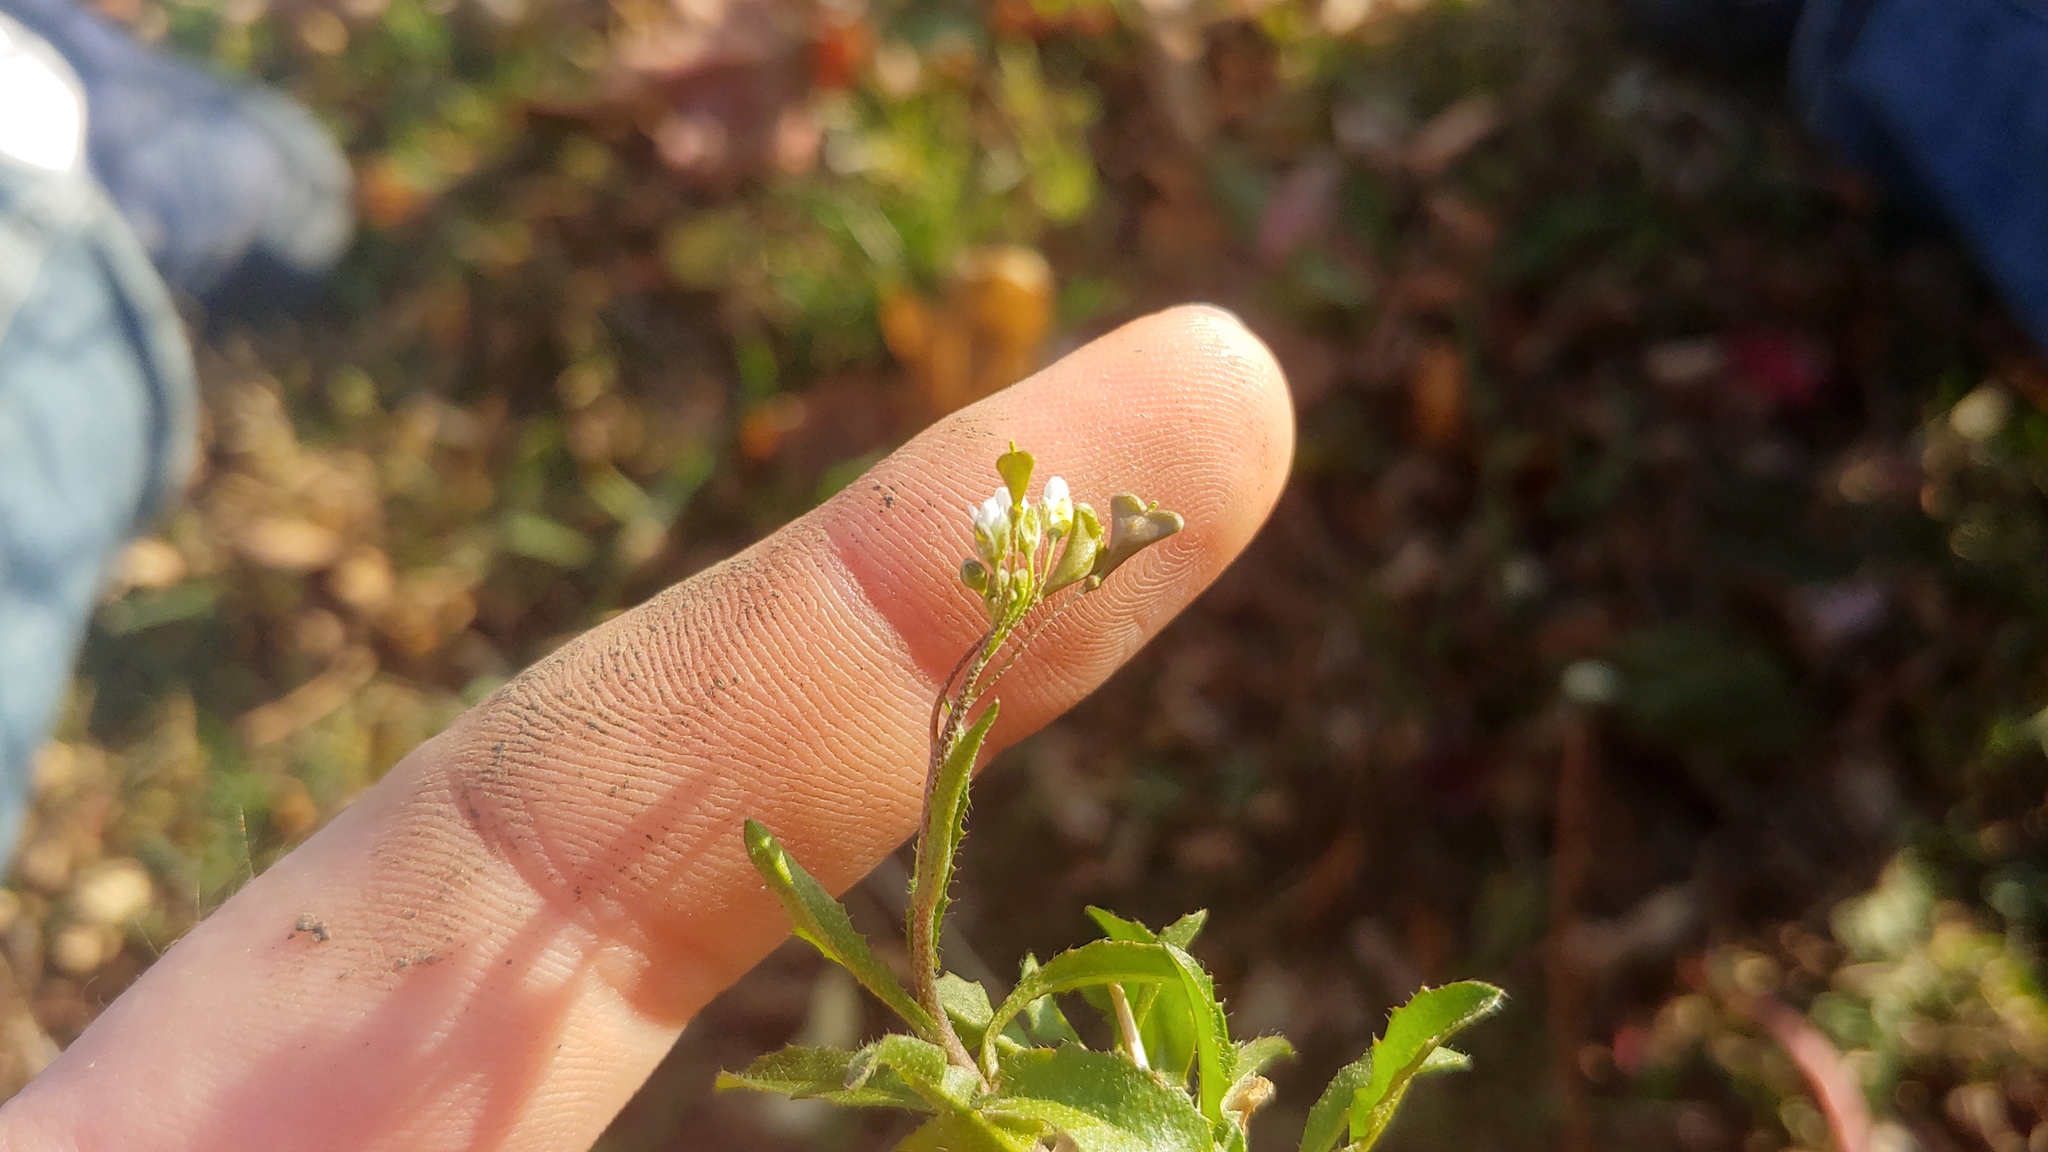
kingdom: Plantae
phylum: Tracheophyta
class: Magnoliopsida
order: Brassicales
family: Brassicaceae
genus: Capsella
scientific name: Capsella bursa-pastoris
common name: Shepherd's purse
